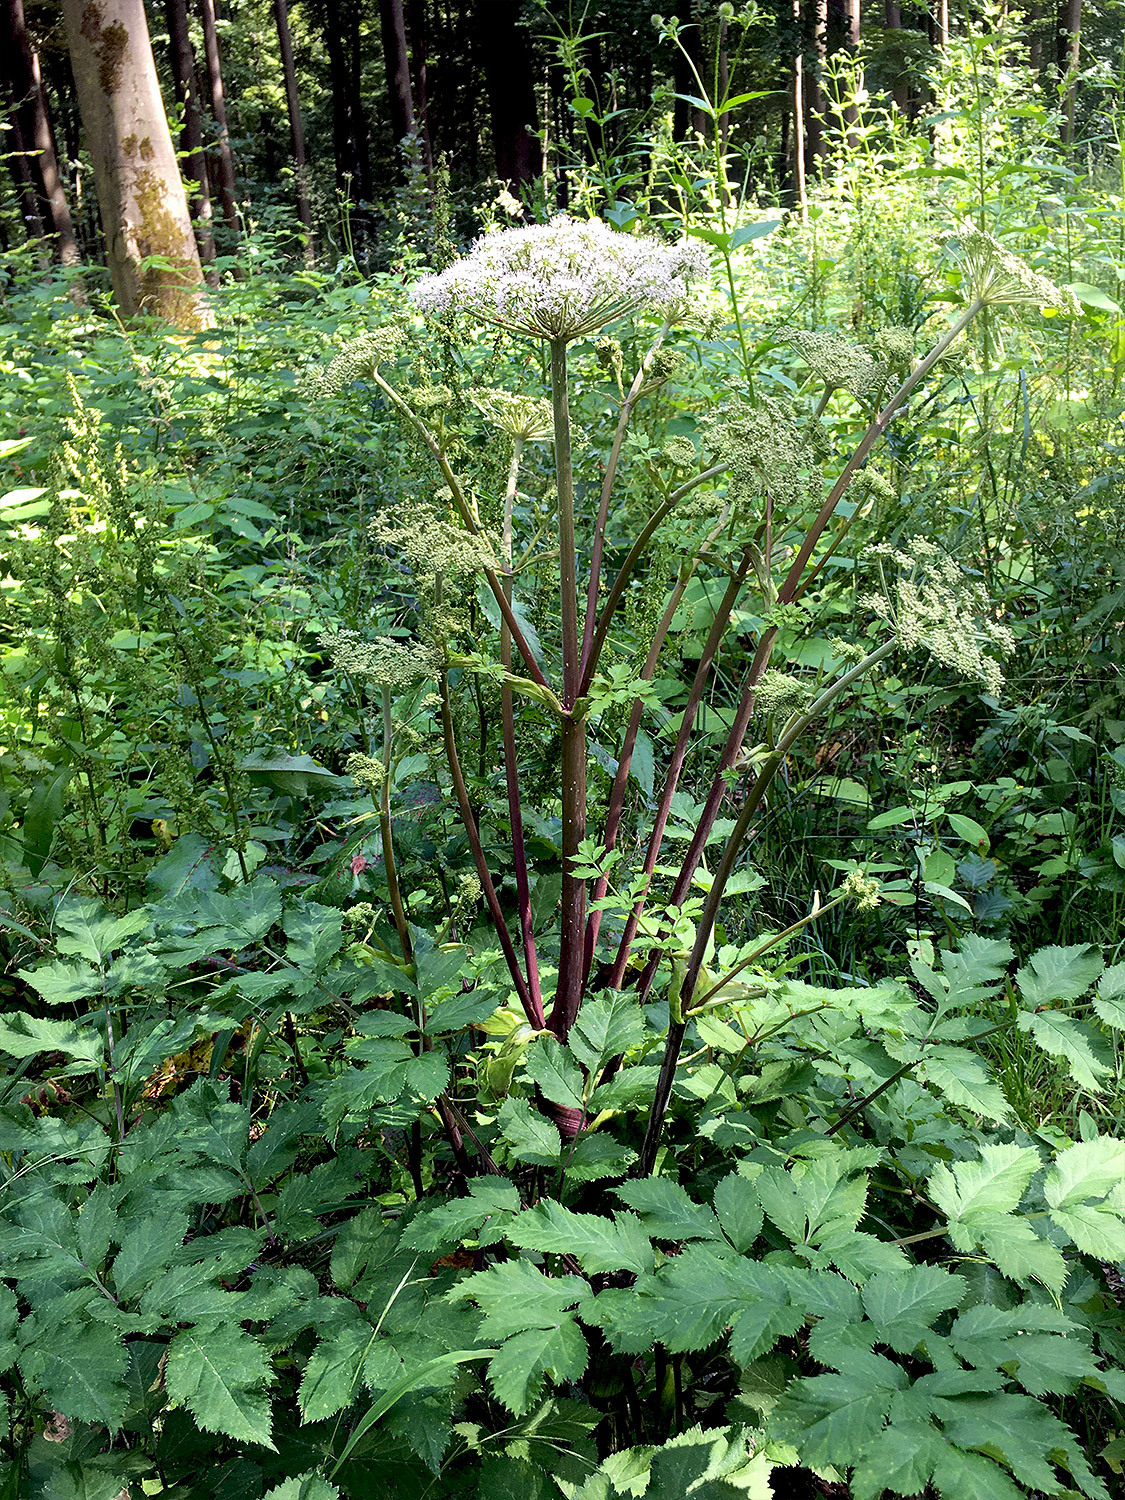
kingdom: Plantae
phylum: Tracheophyta
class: Magnoliopsida
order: Apiales
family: Apiaceae
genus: Angelica
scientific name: Angelica sylvestris
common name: Wild angelica
